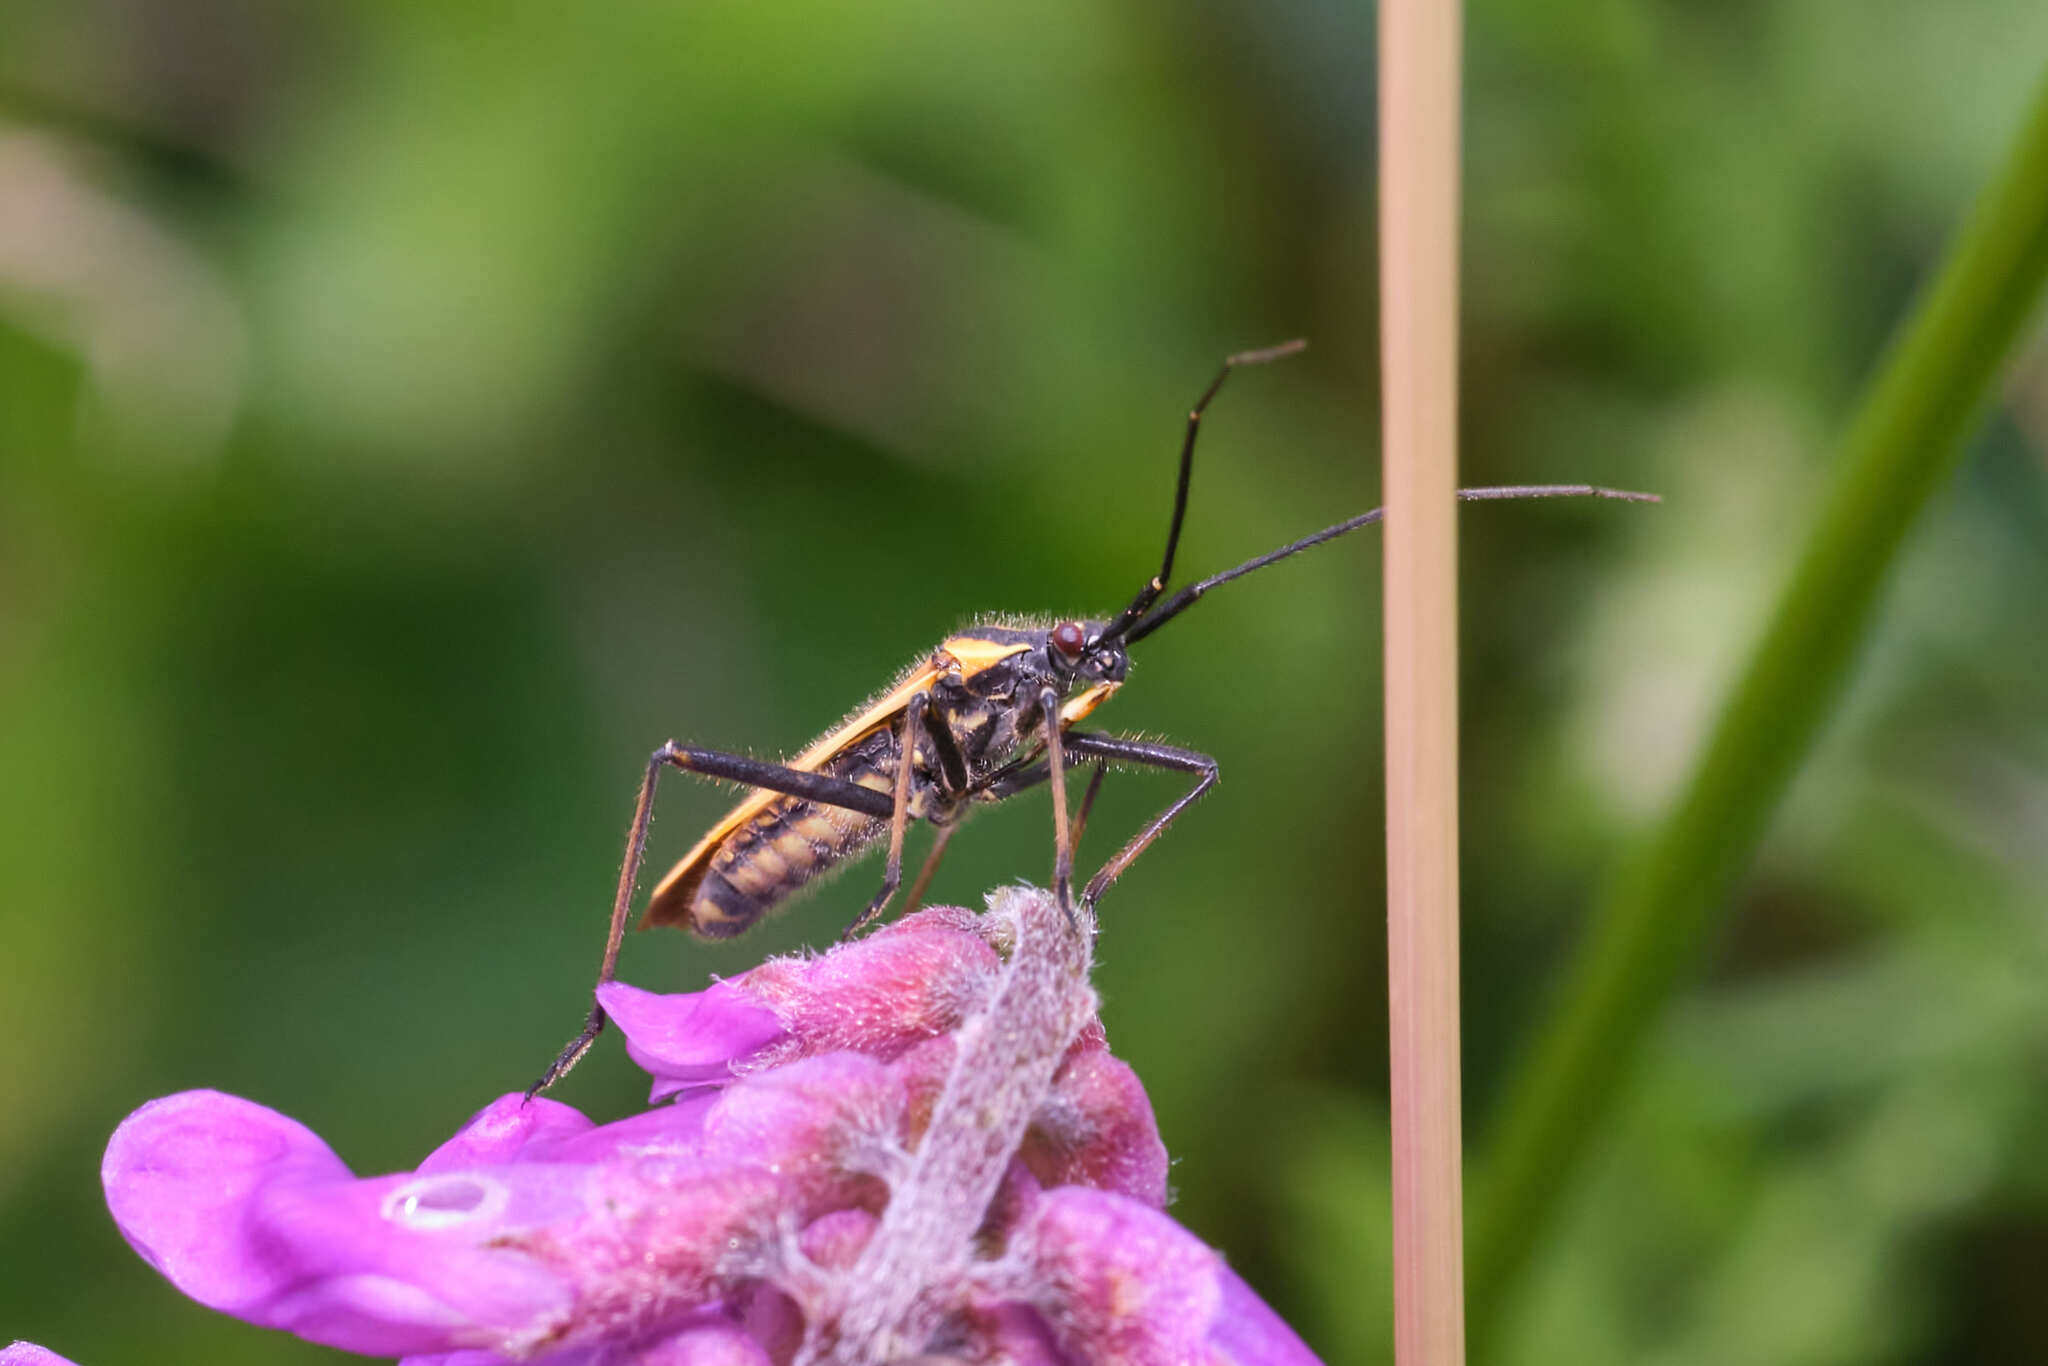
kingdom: Animalia
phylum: Arthropoda
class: Insecta
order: Hemiptera
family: Miridae
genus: Leptopterna
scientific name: Leptopterna dolabrata
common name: Meadow plant bug
